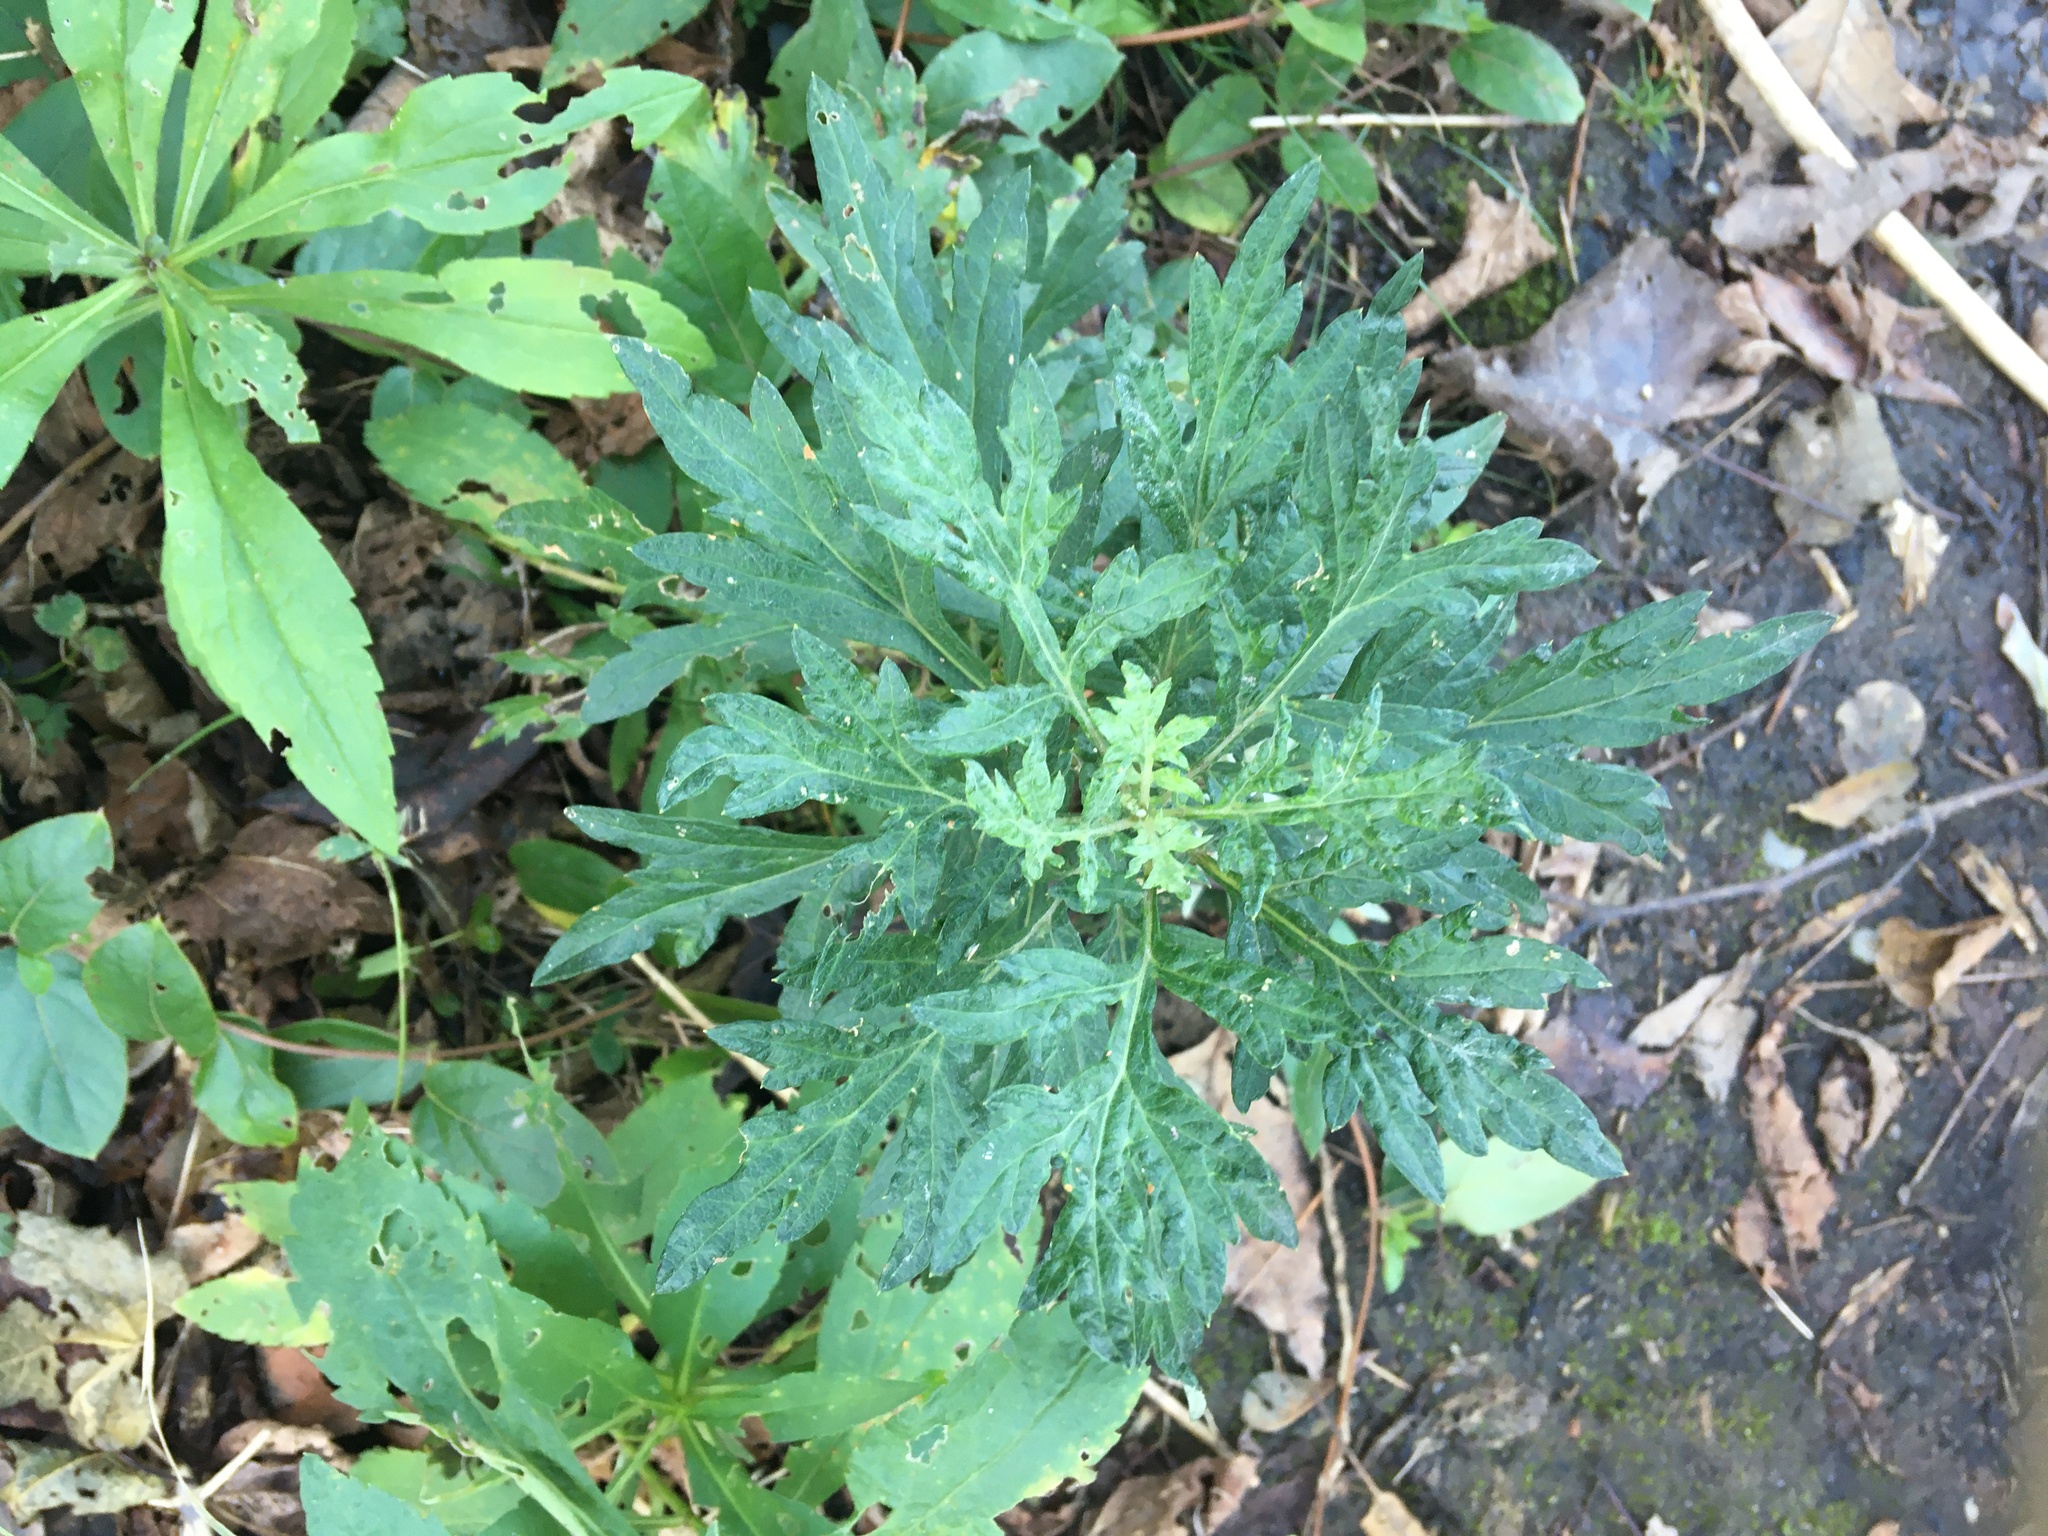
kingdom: Plantae
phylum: Tracheophyta
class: Magnoliopsida
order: Asterales
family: Asteraceae
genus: Artemisia
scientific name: Artemisia vulgaris
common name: Mugwort
